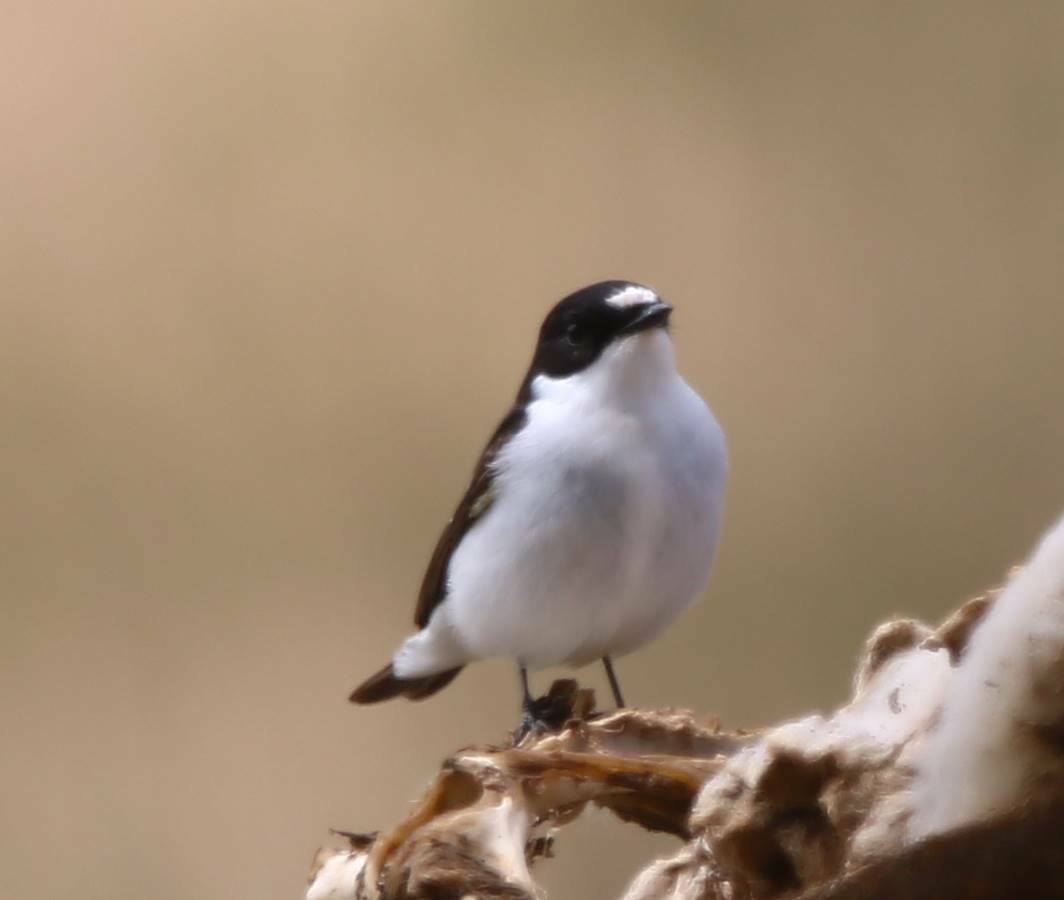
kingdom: Animalia
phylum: Chordata
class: Aves
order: Passeriformes
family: Muscicapidae
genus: Ficedula
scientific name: Ficedula hypoleuca
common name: European pied flycatcher
